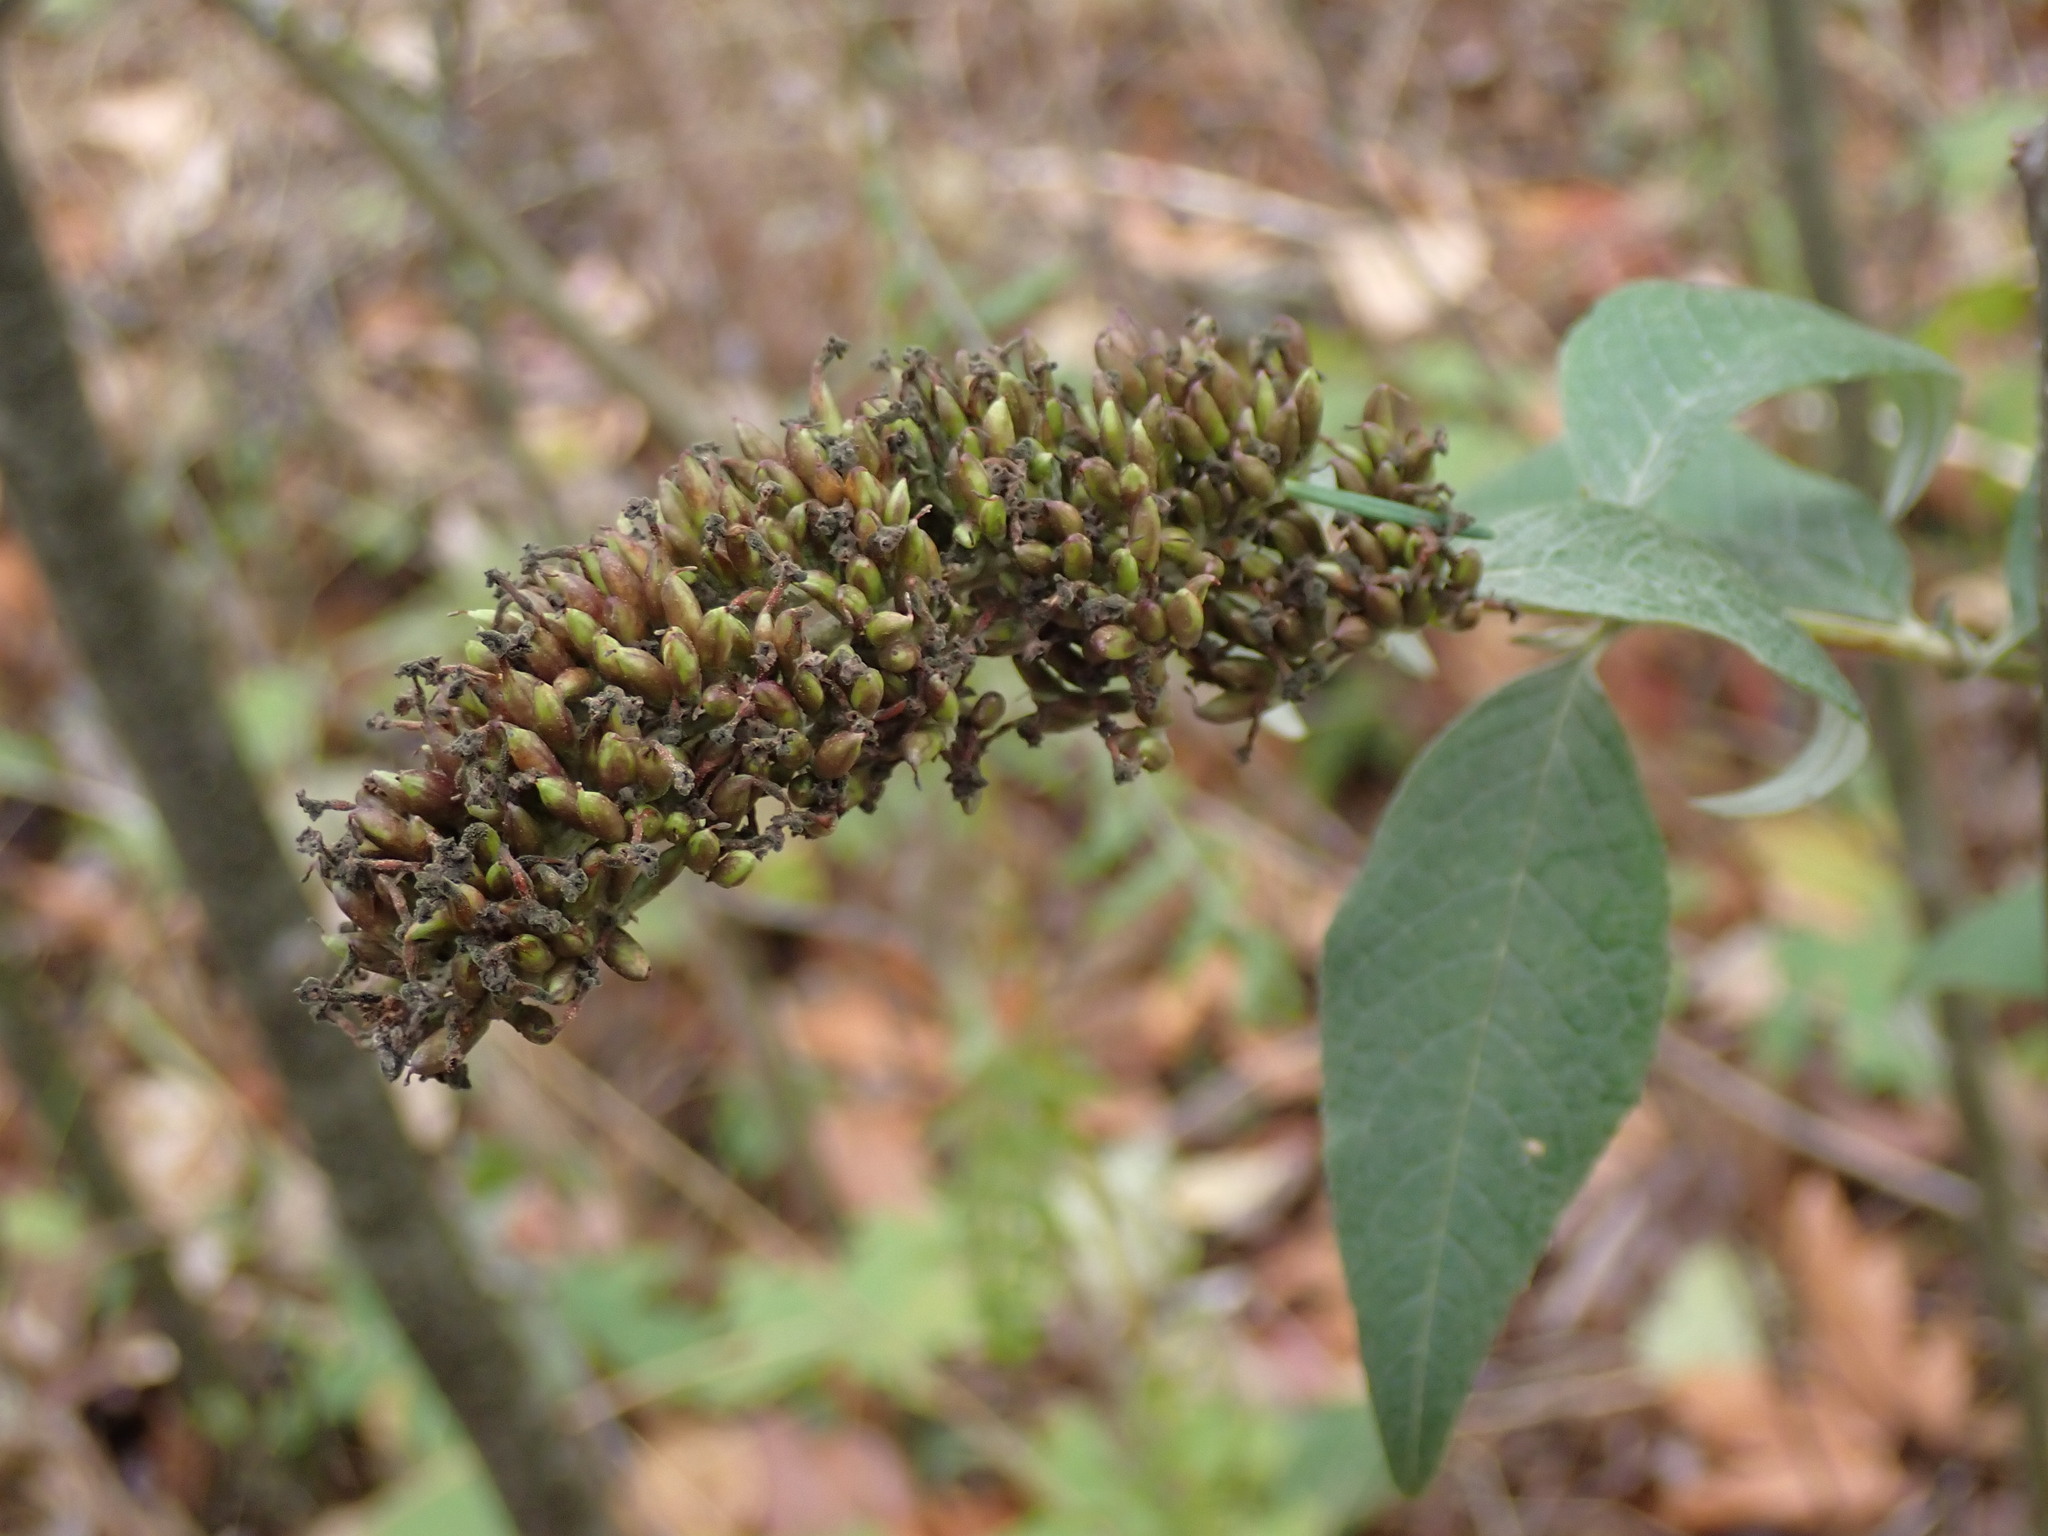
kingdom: Plantae
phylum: Tracheophyta
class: Magnoliopsida
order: Lamiales
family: Scrophulariaceae
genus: Buddleja
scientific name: Buddleja davidii
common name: Butterfly-bush
